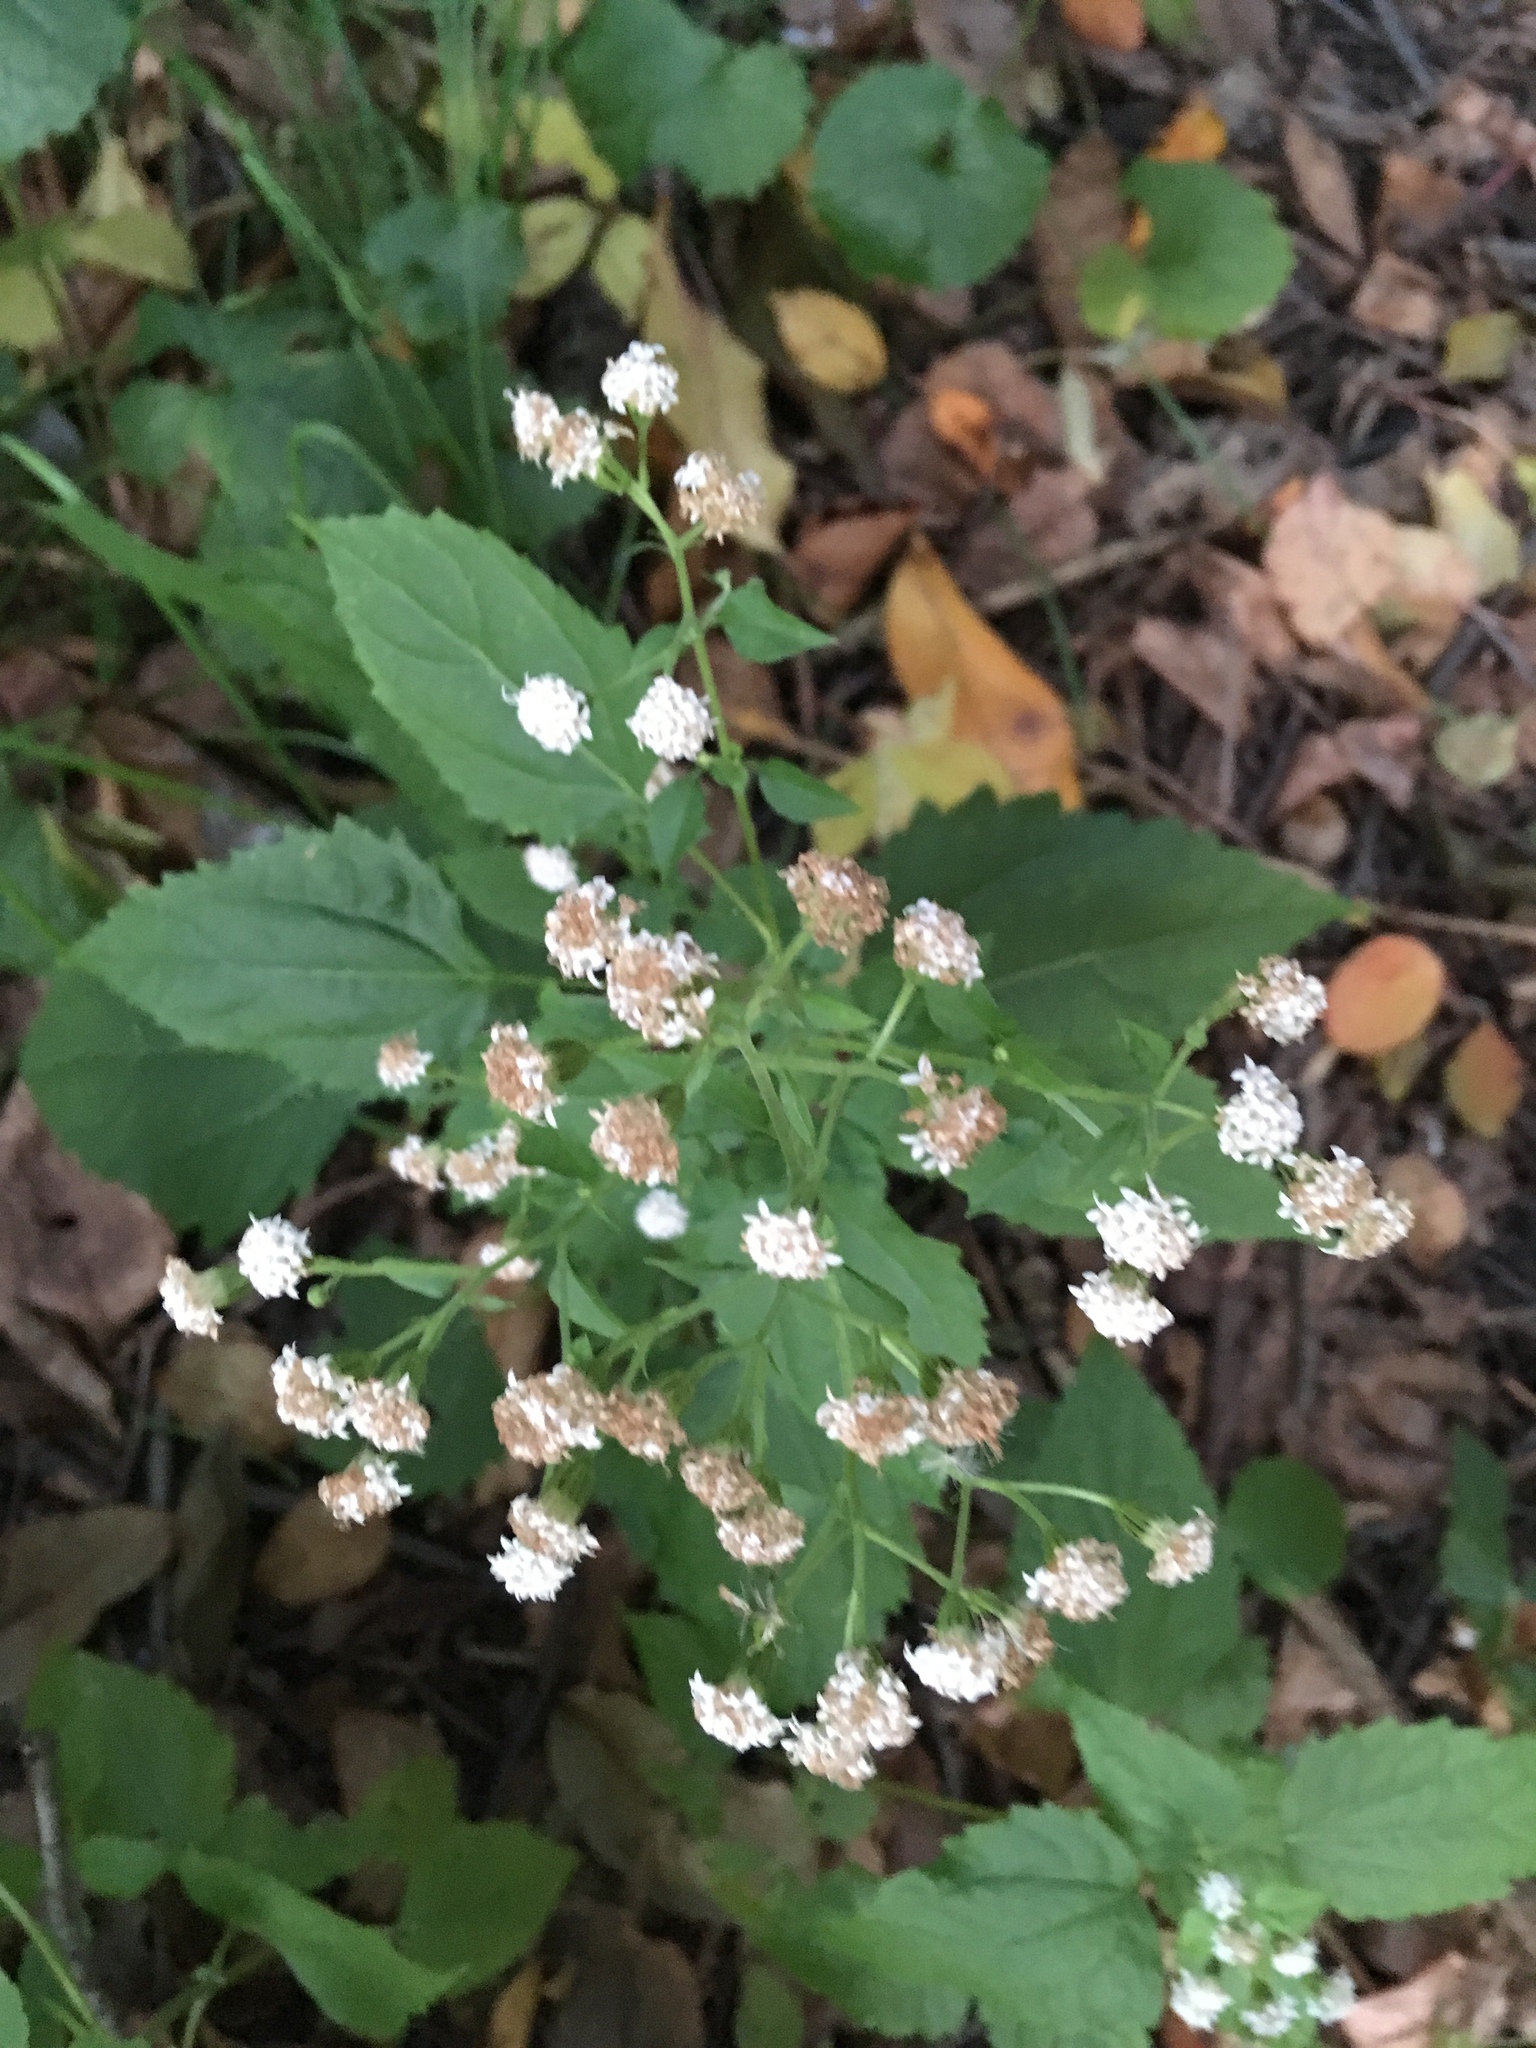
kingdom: Plantae
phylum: Tracheophyta
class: Magnoliopsida
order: Asterales
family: Asteraceae
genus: Ageratina
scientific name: Ageratina altissima
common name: White snakeroot
